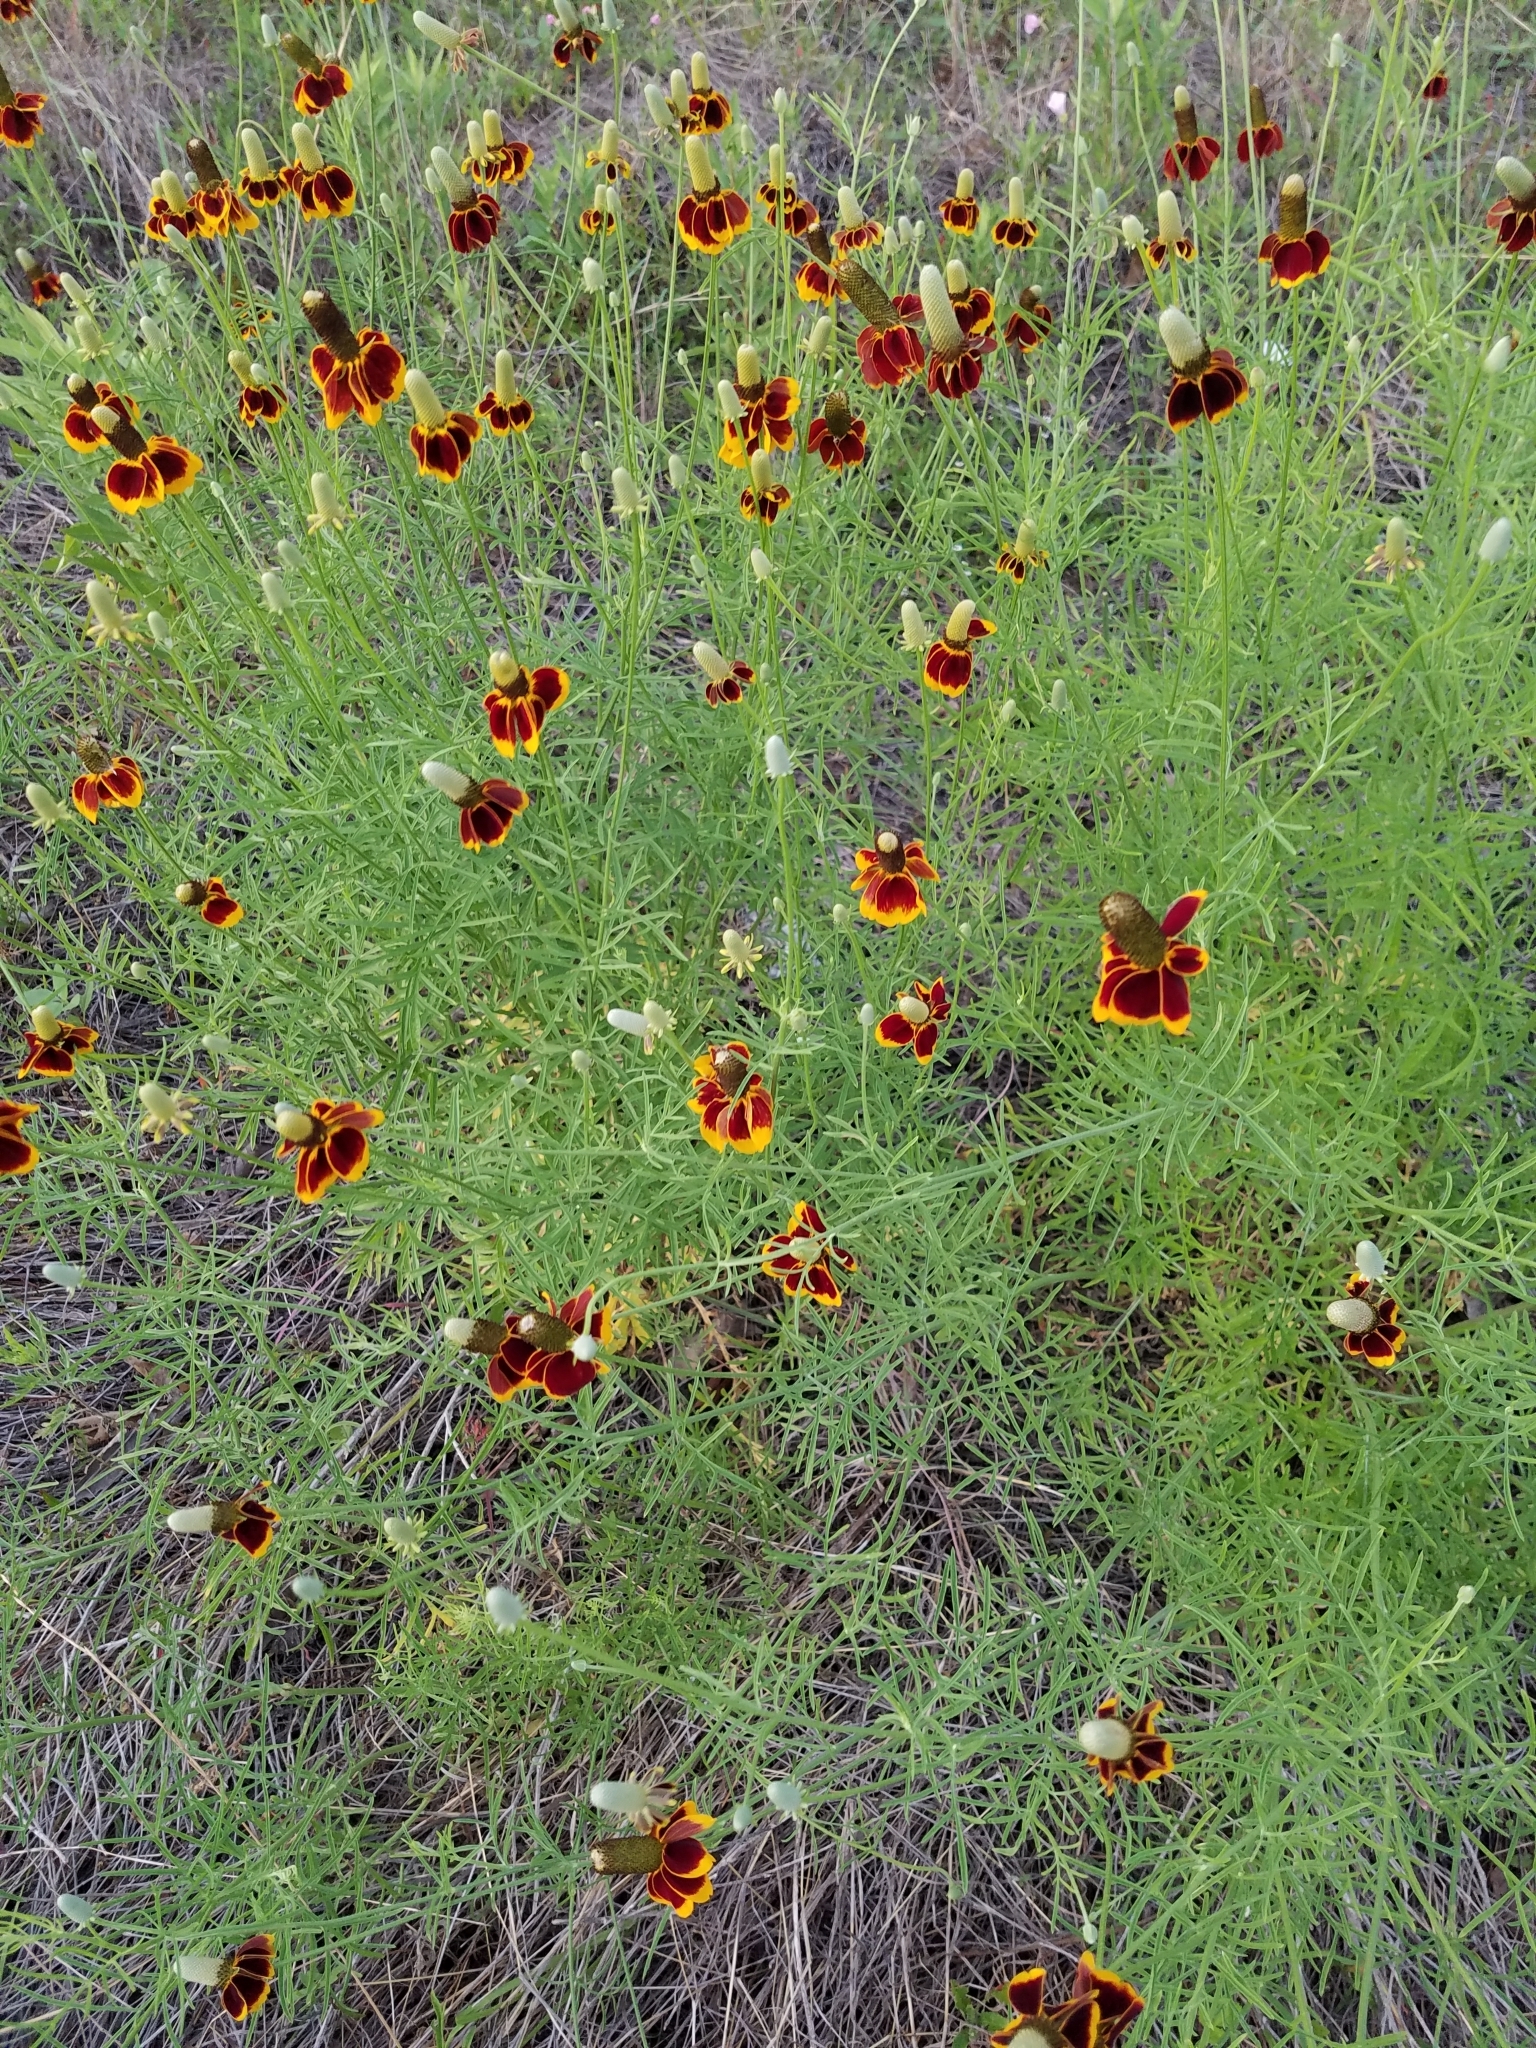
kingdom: Plantae
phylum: Tracheophyta
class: Magnoliopsida
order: Asterales
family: Asteraceae
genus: Ratibida
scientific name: Ratibida columnifera
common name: Prairie coneflower
